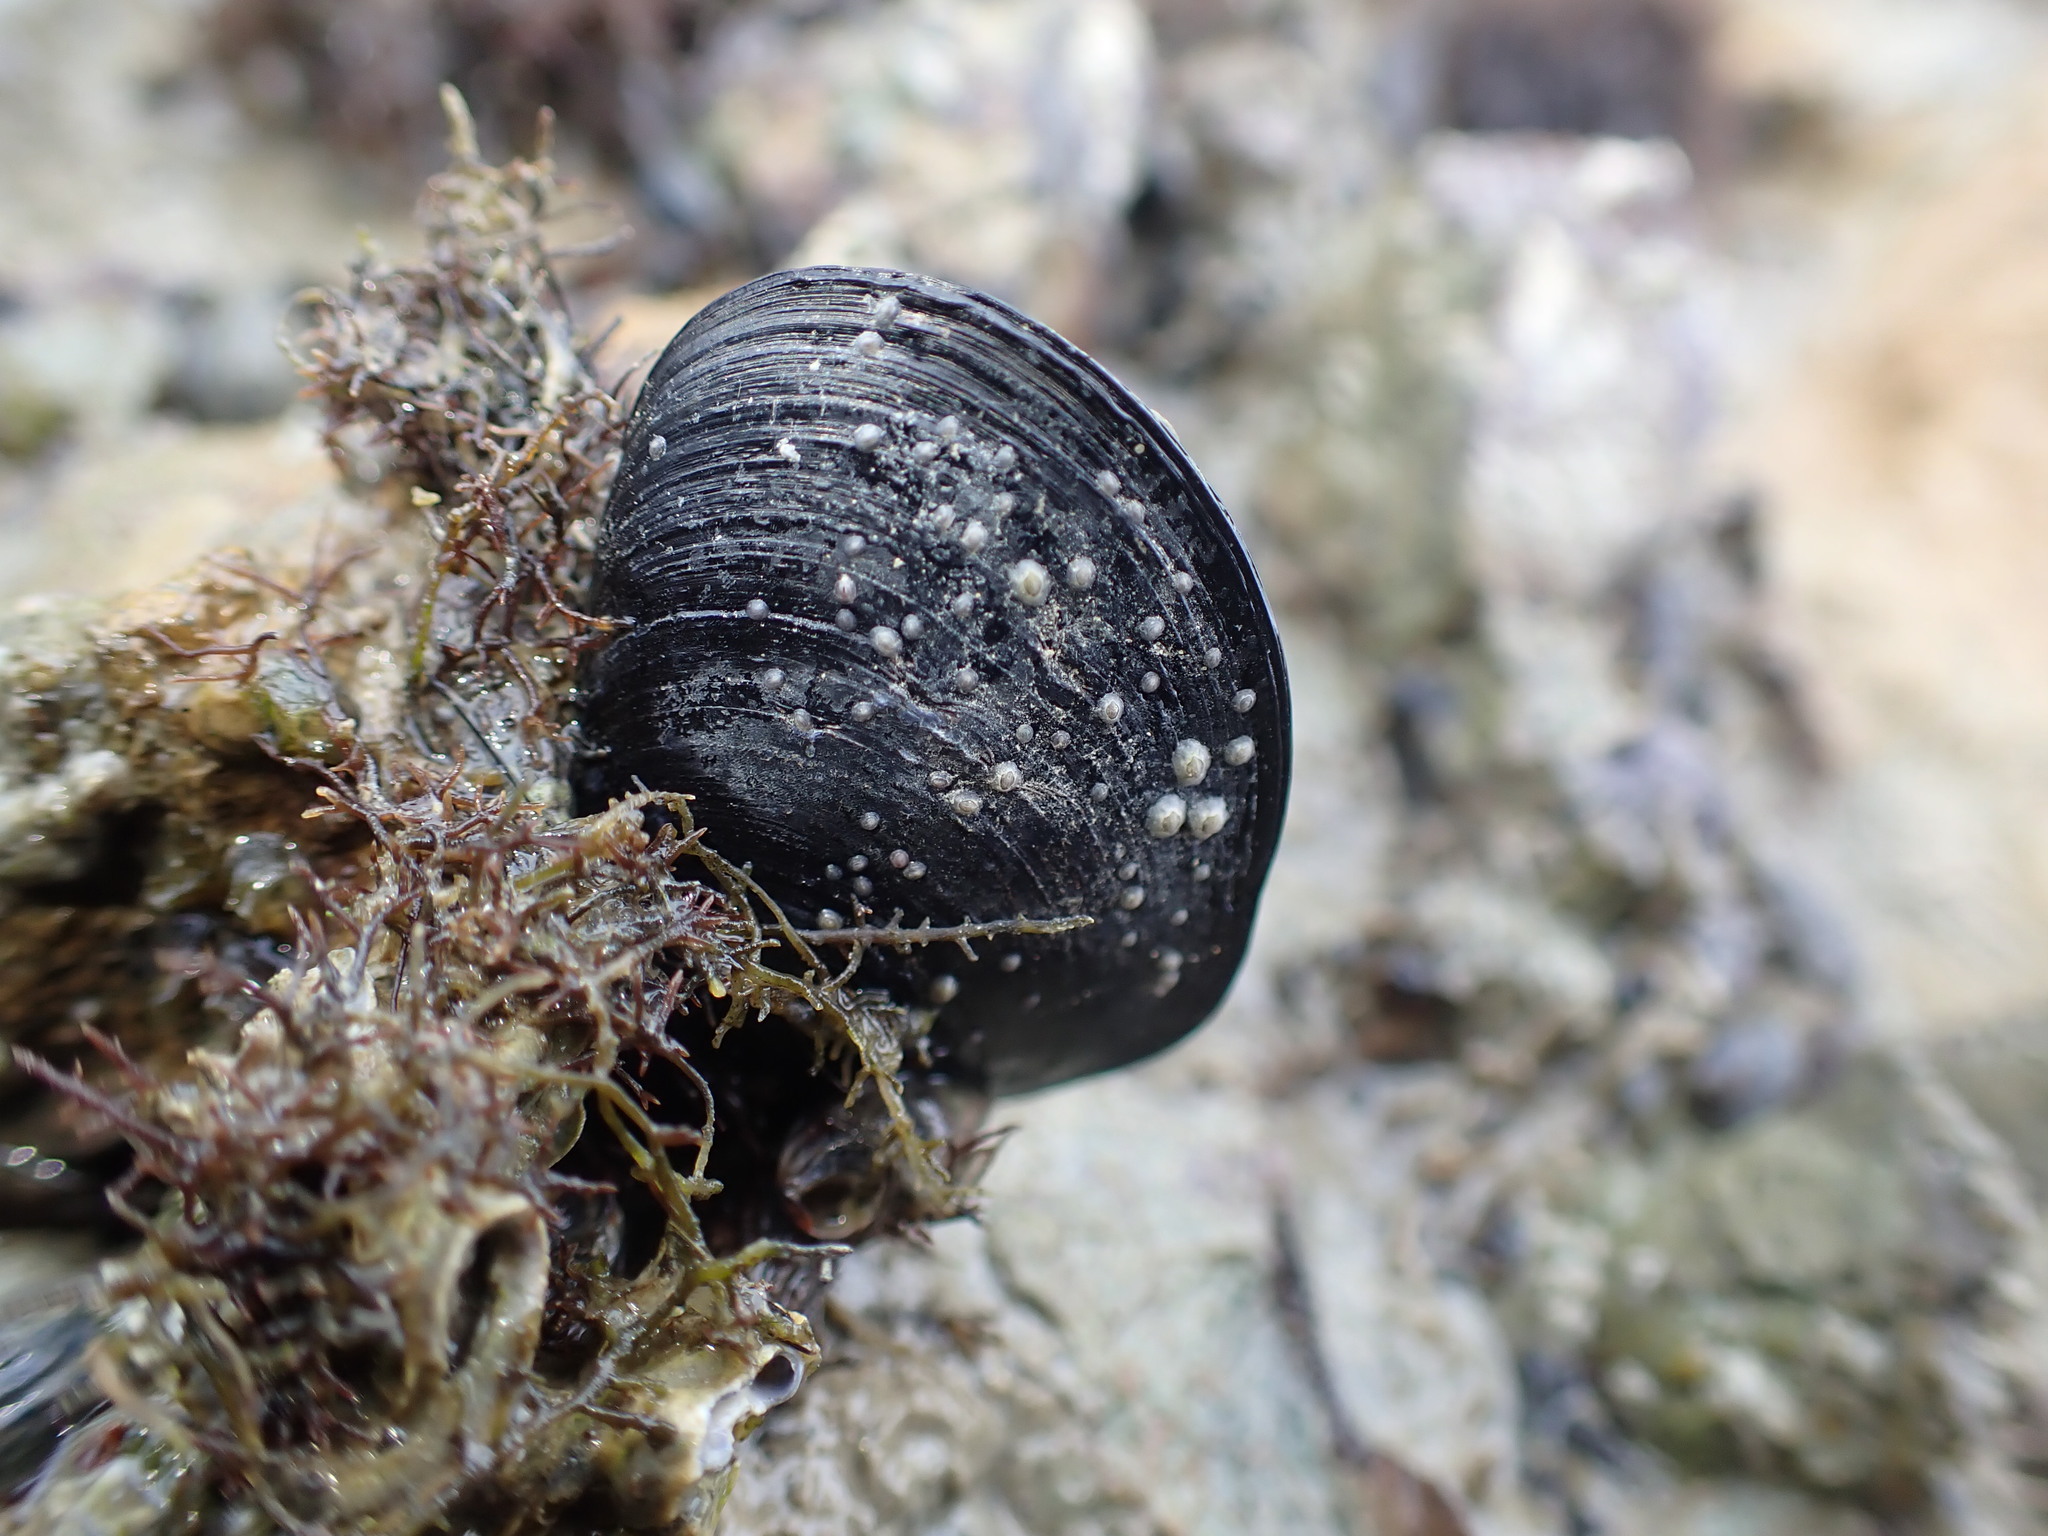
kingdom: Animalia
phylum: Mollusca
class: Bivalvia
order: Mytilida
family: Mytilidae
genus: Perna
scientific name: Perna canaliculus
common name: New zealand greenshelltm
